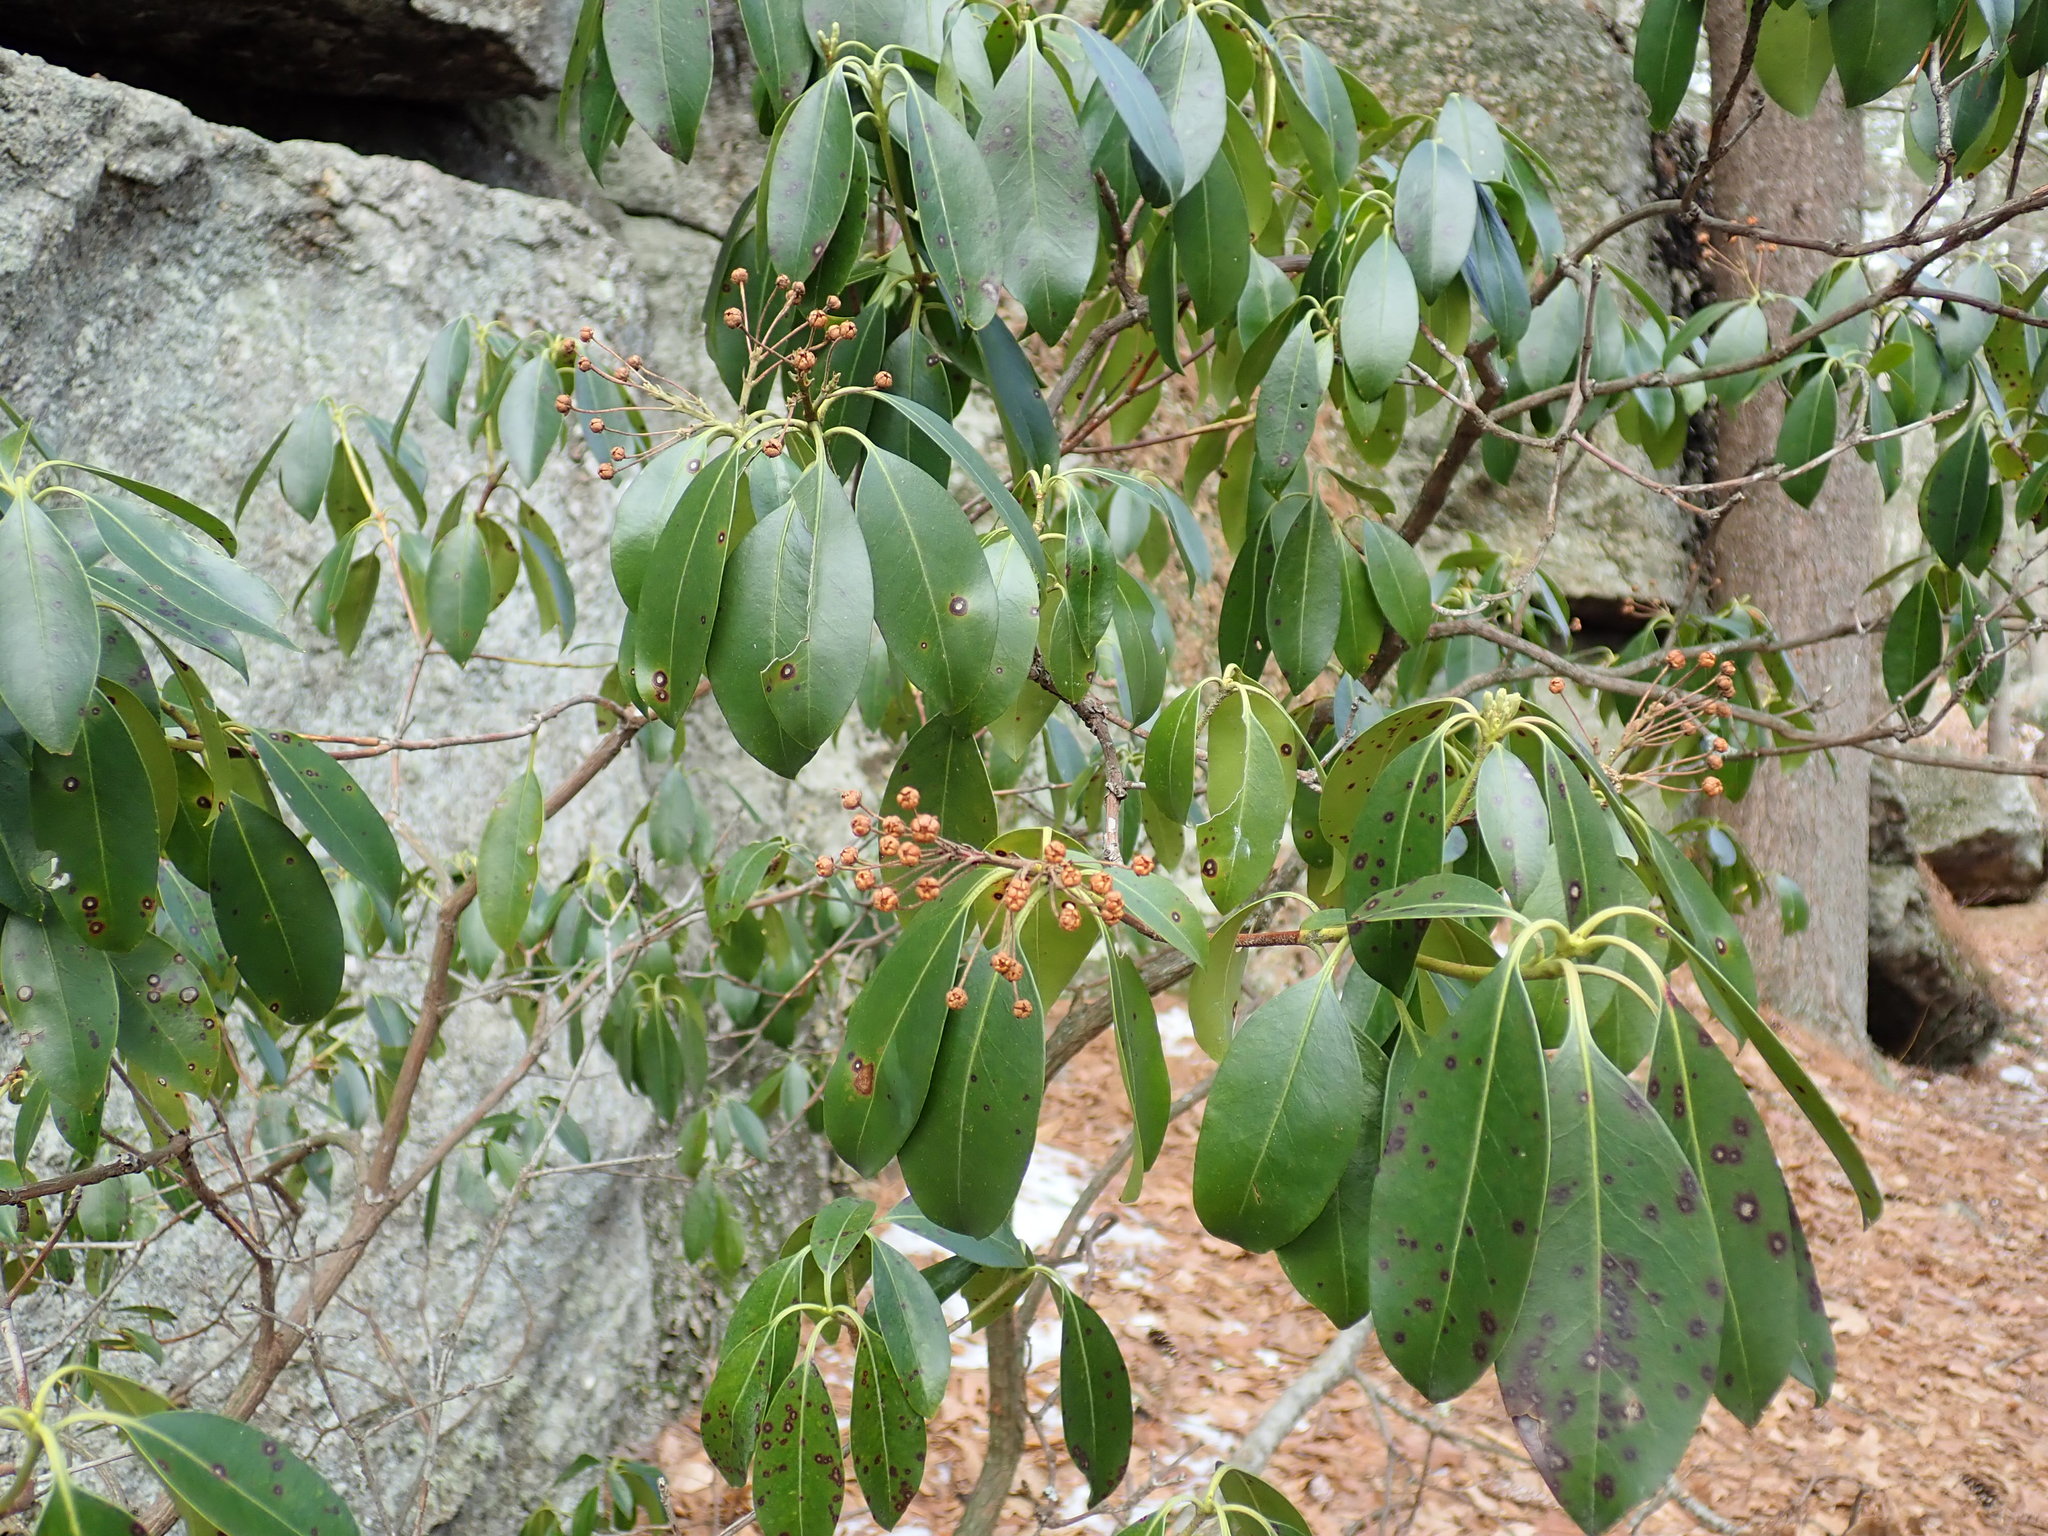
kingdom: Plantae
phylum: Tracheophyta
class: Magnoliopsida
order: Ericales
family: Ericaceae
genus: Kalmia
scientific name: Kalmia latifolia
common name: Mountain-laurel
